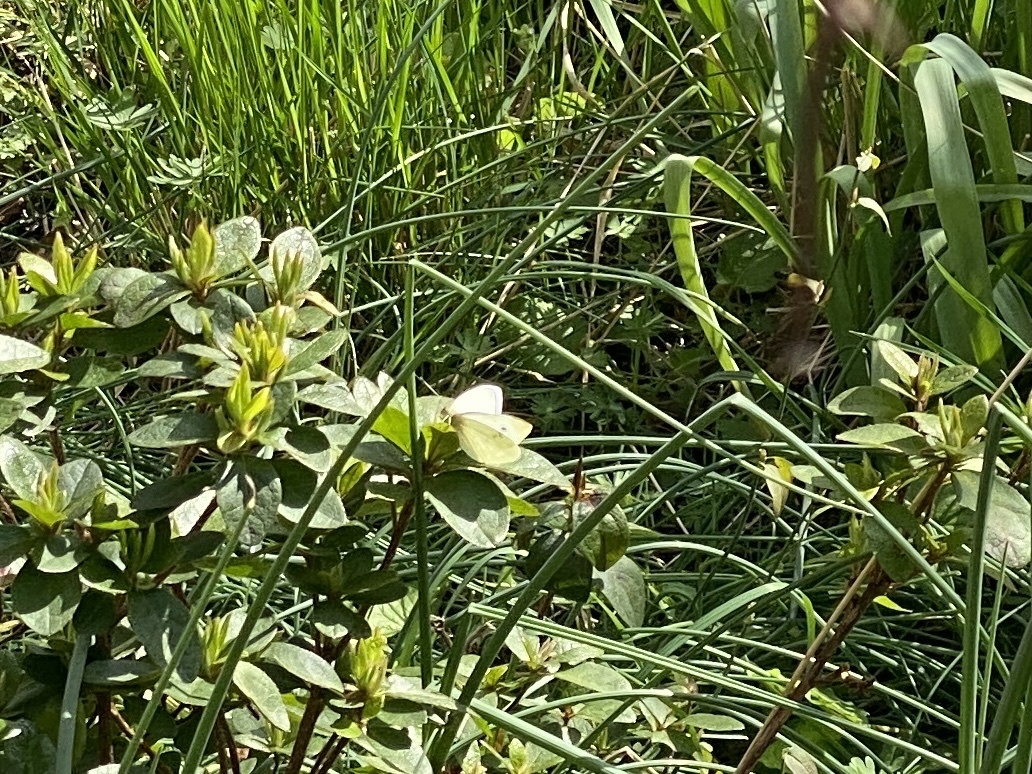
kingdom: Animalia
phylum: Arthropoda
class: Insecta
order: Lepidoptera
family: Pieridae
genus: Pieris
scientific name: Pieris rapae
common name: Small white
